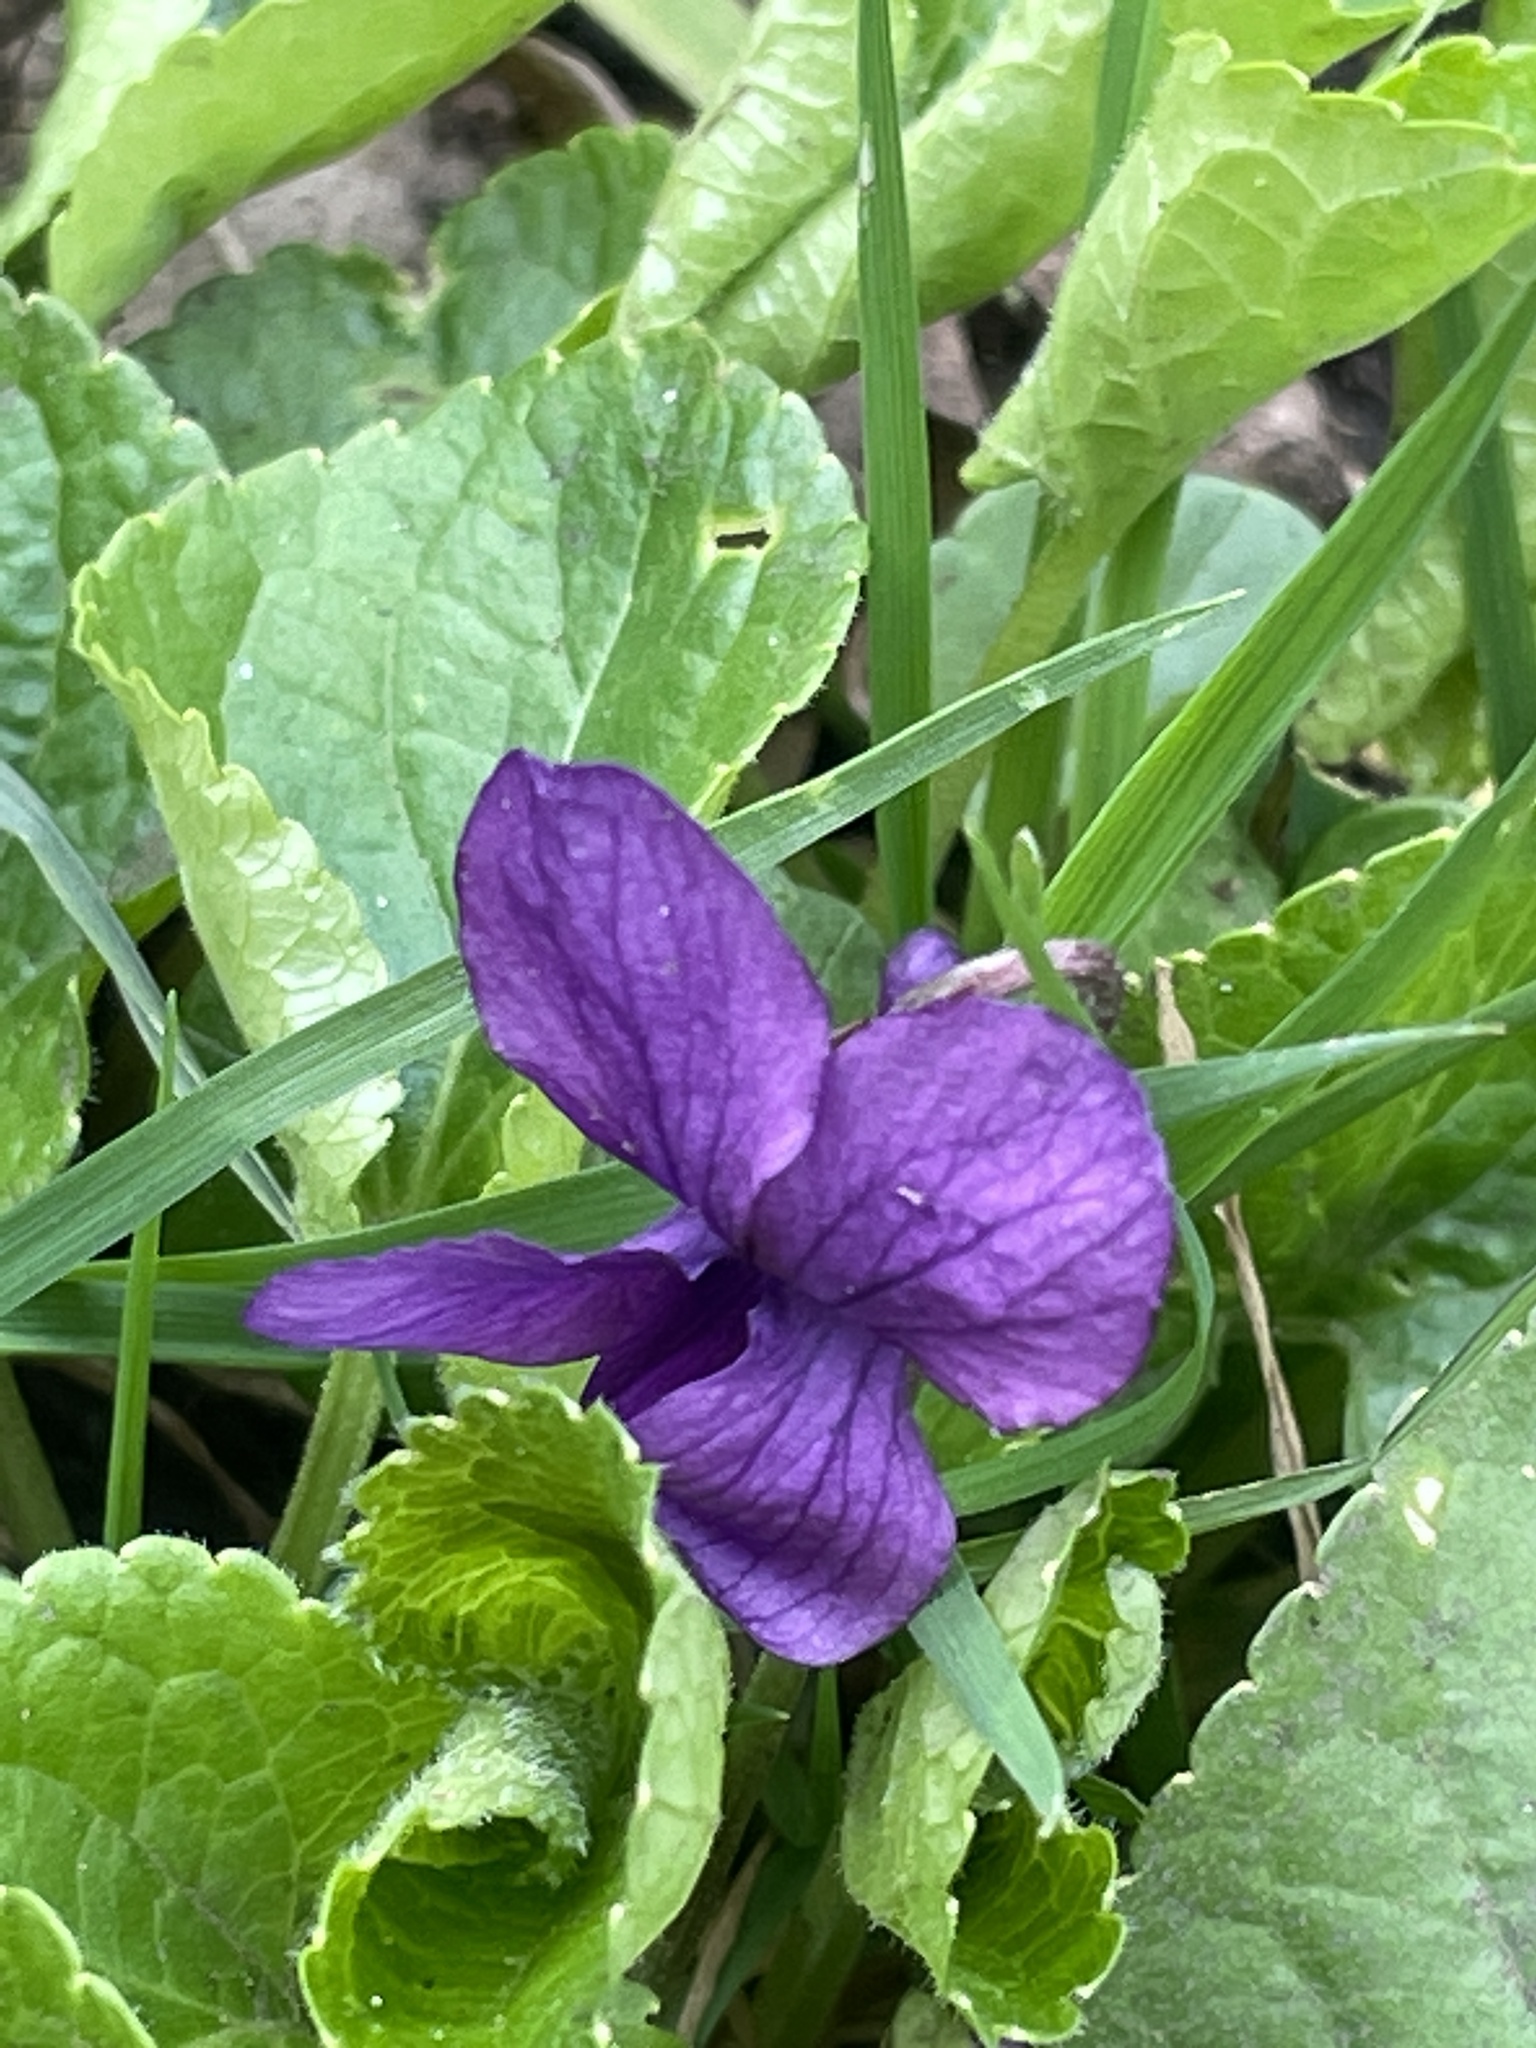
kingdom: Plantae
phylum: Tracheophyta
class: Magnoliopsida
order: Malpighiales
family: Violaceae
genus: Viola
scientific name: Viola odorata
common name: Sweet violet
